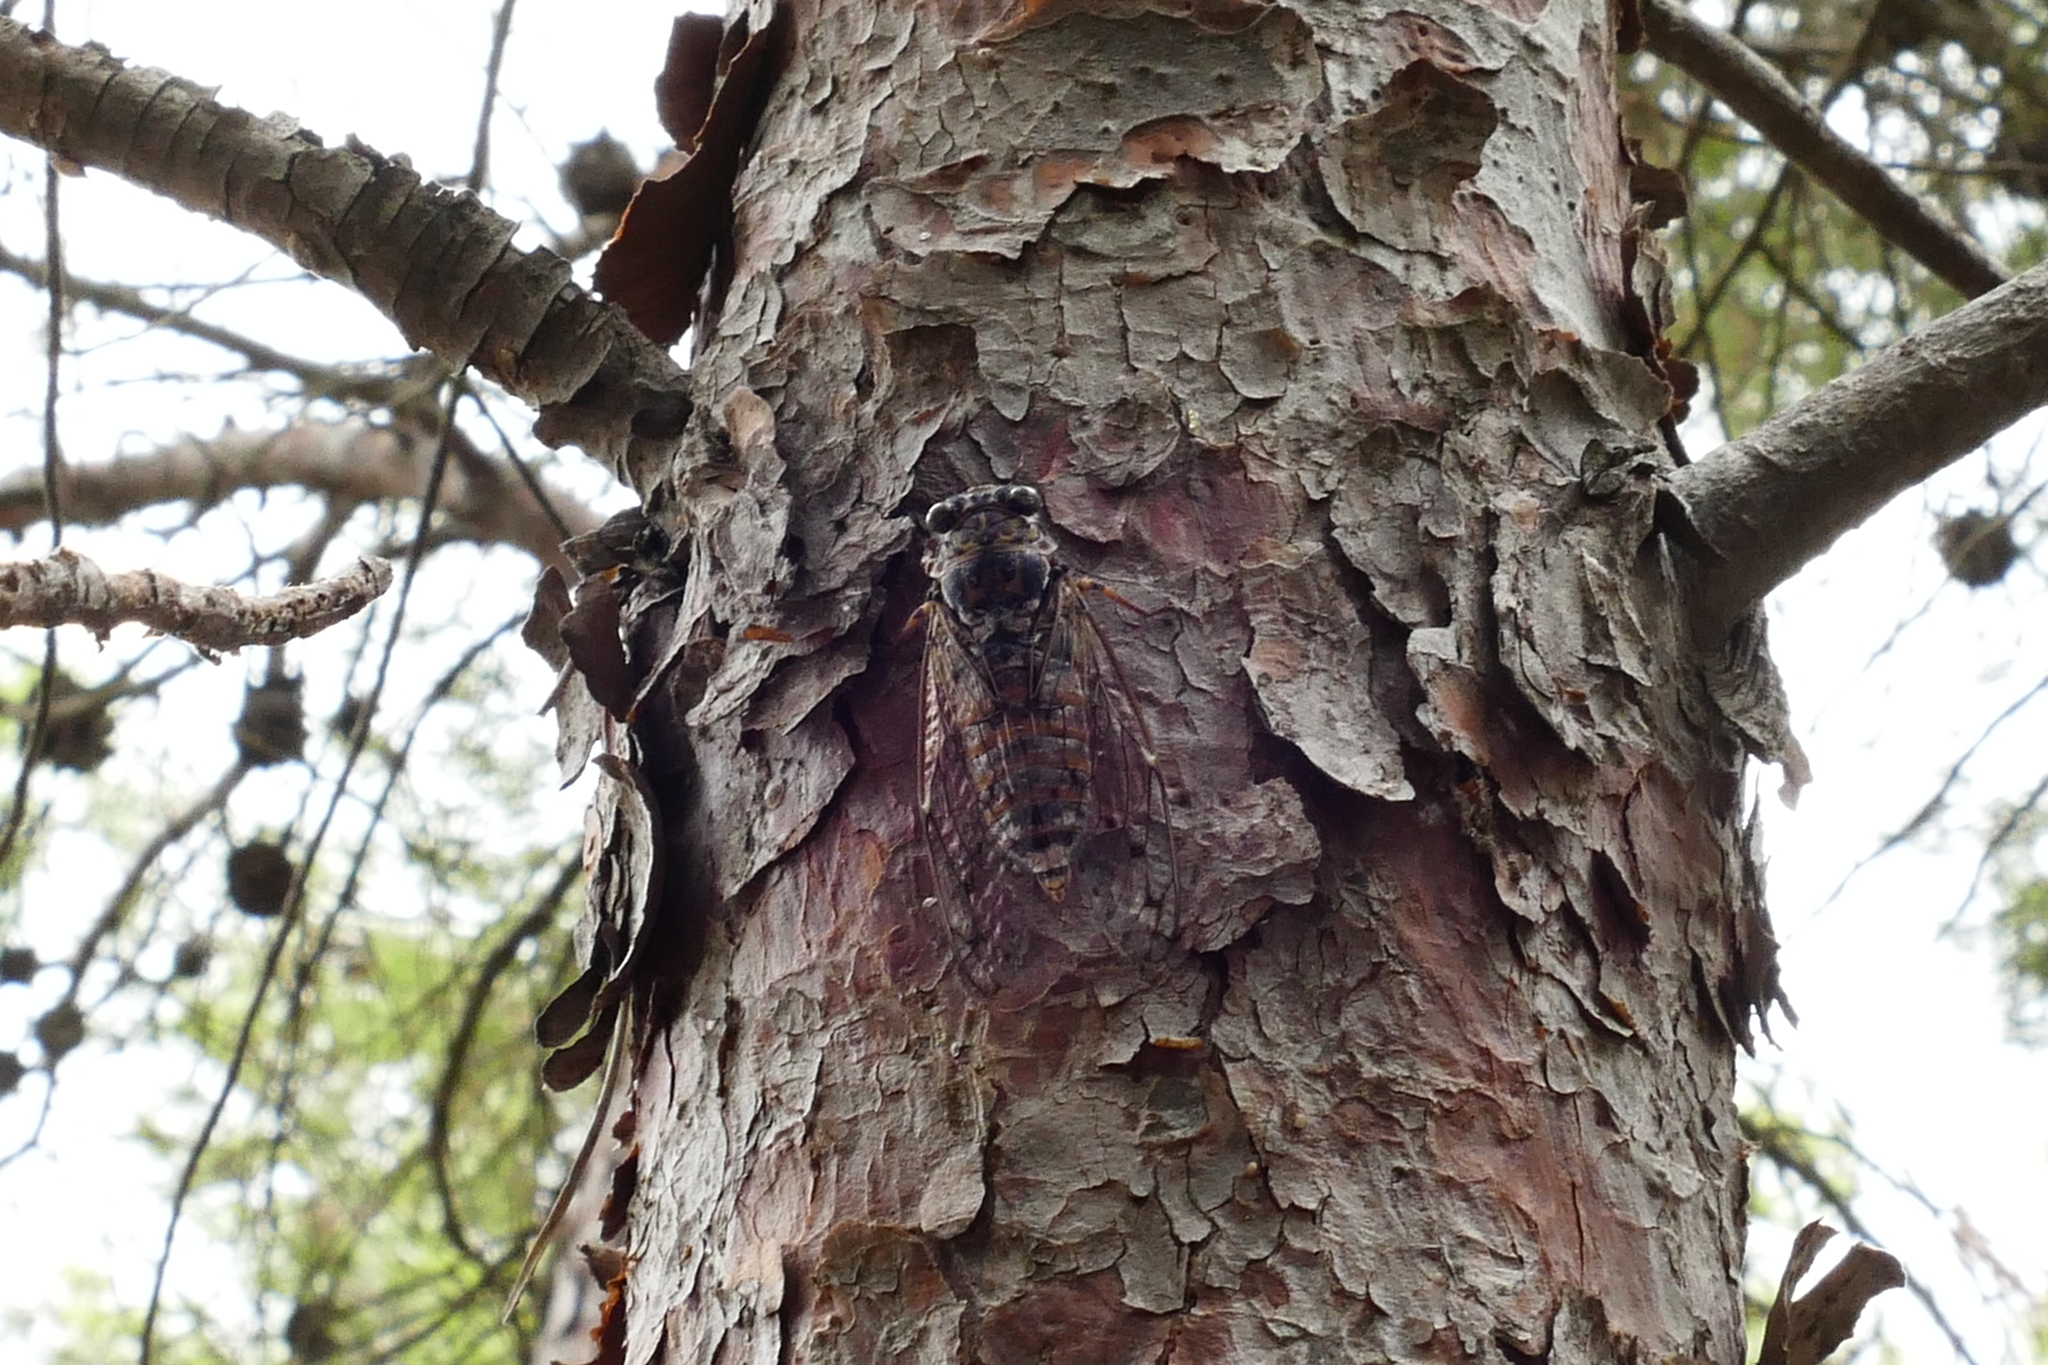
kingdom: Animalia
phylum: Arthropoda
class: Insecta
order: Hemiptera
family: Cicadidae
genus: Cicada
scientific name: Cicada orni
